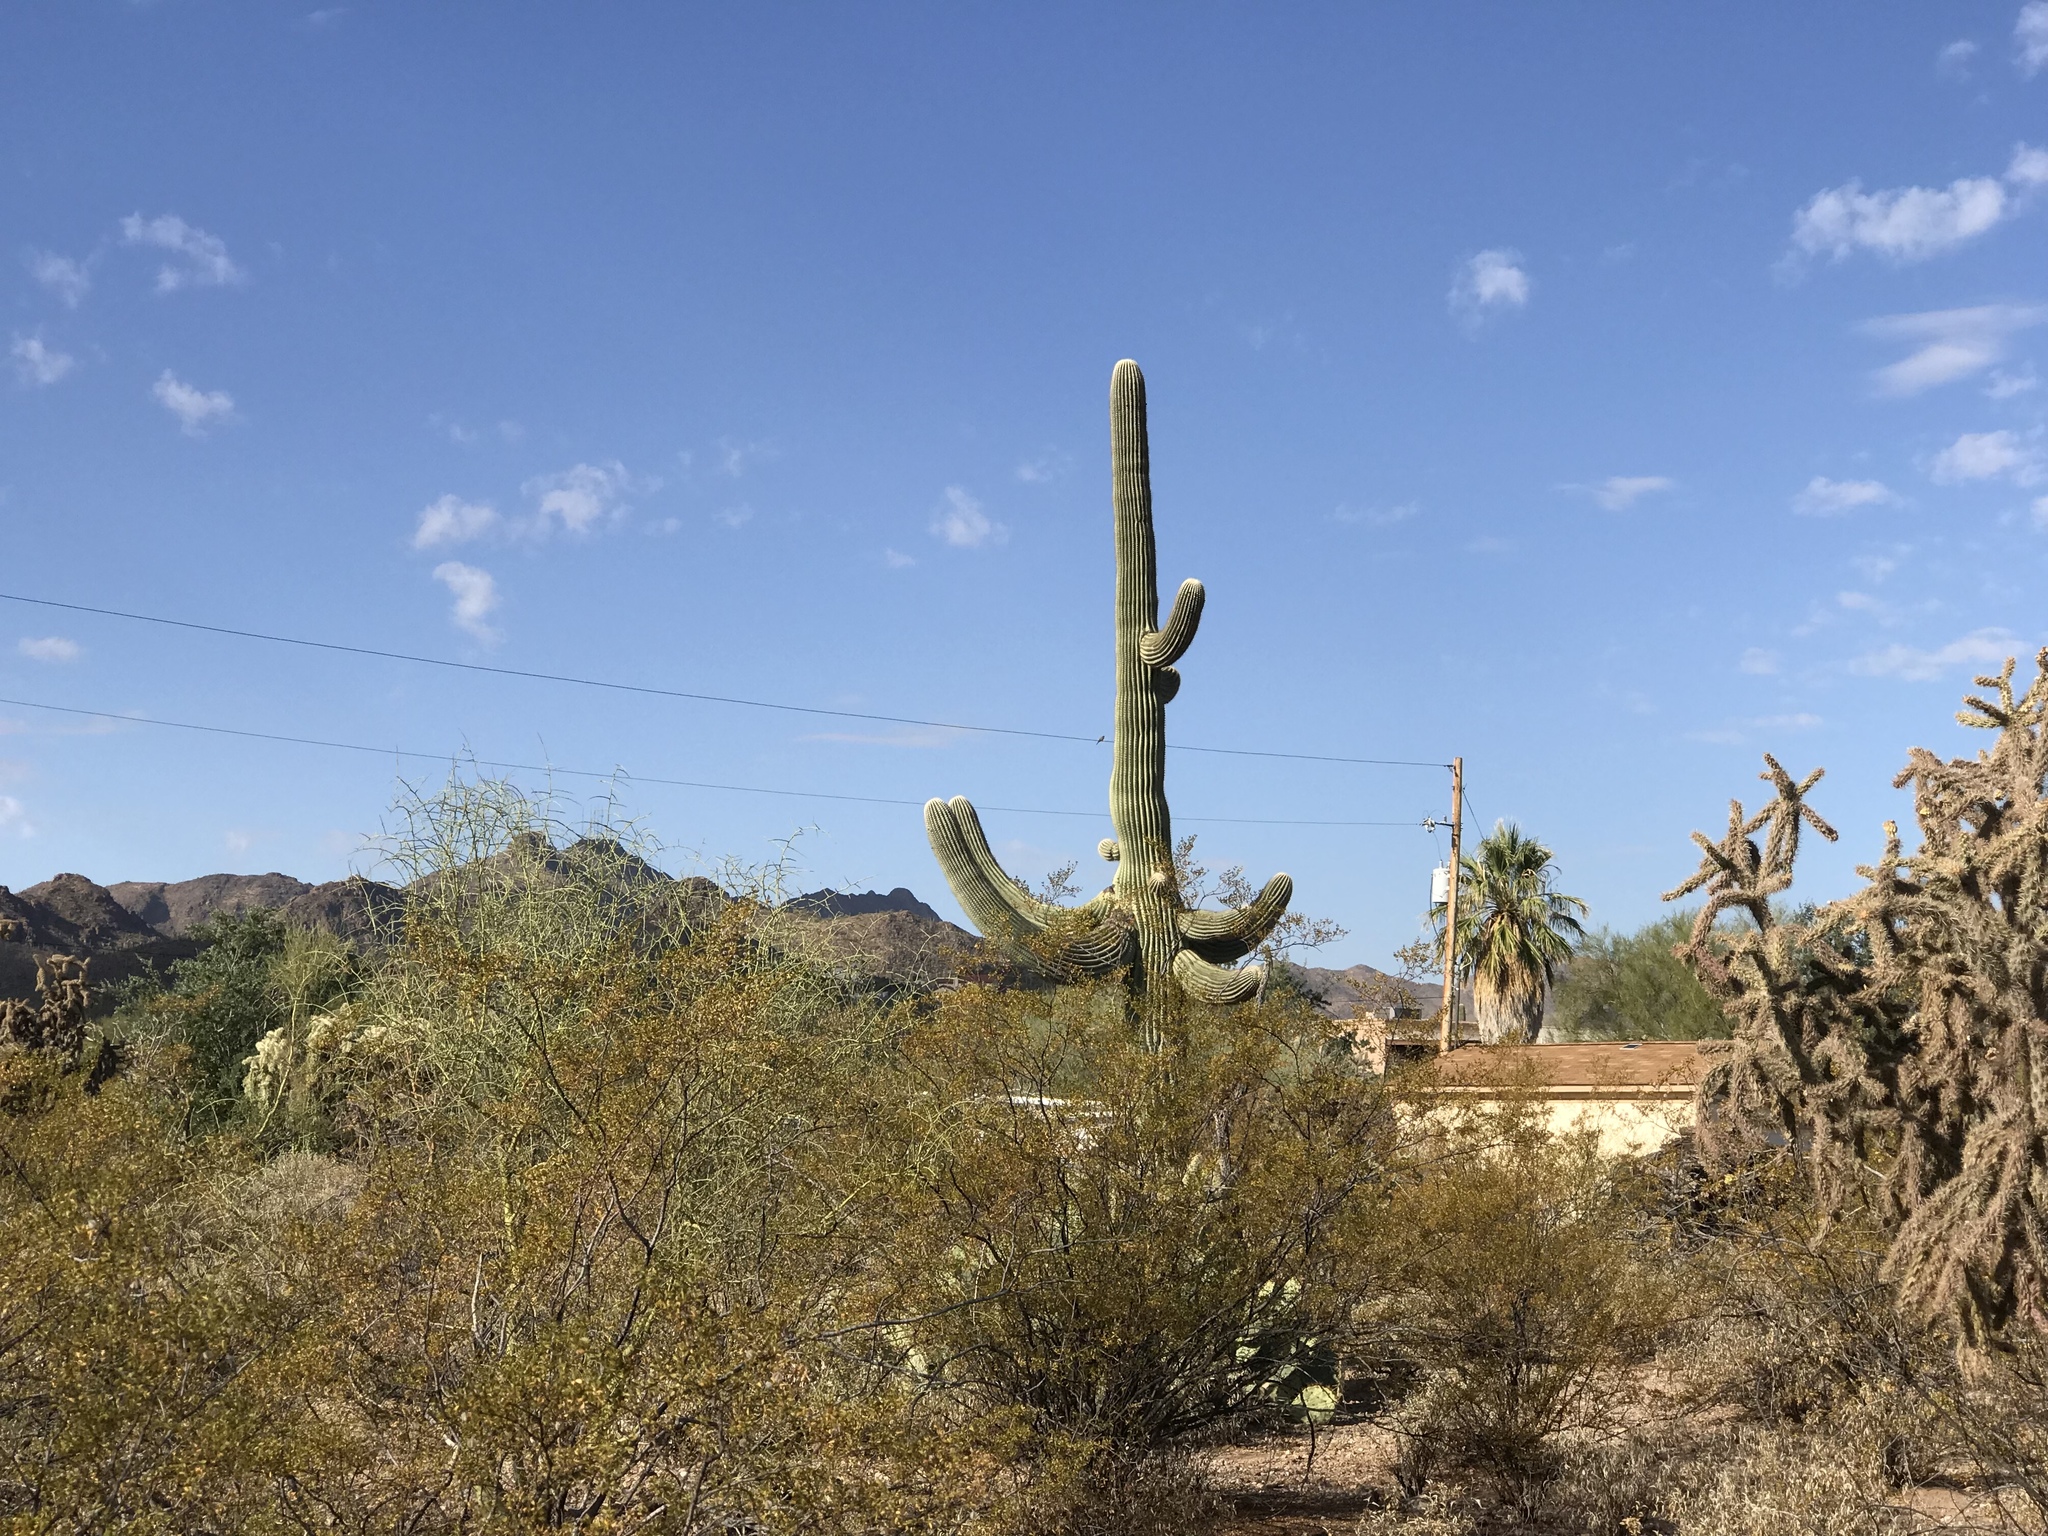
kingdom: Plantae
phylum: Tracheophyta
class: Magnoliopsida
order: Caryophyllales
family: Cactaceae
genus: Carnegiea
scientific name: Carnegiea gigantea
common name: Saguaro
